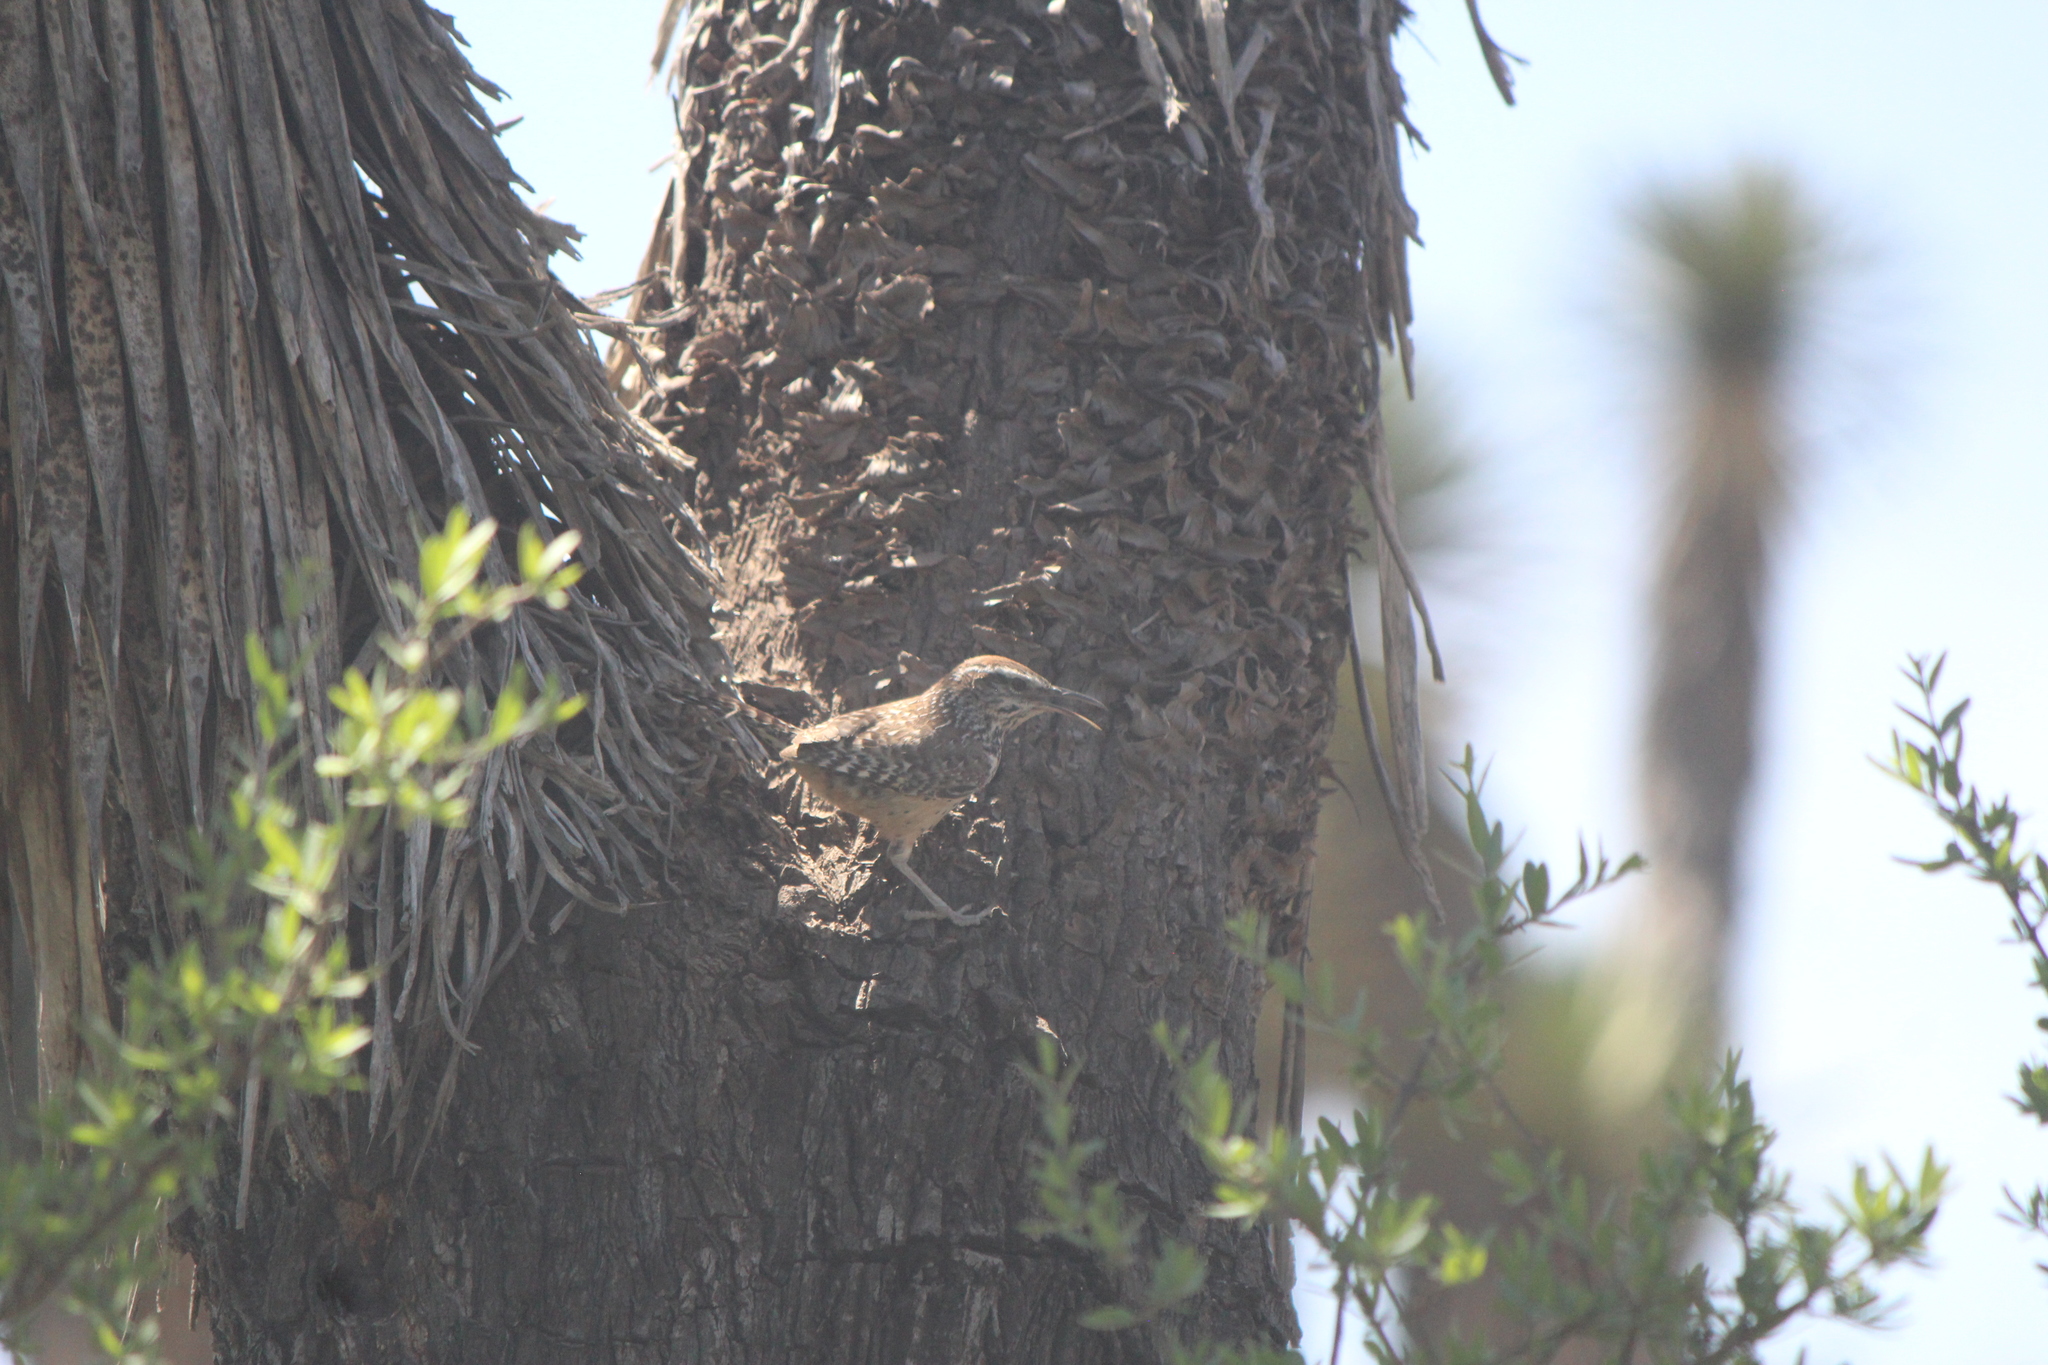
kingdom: Animalia
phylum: Chordata
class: Aves
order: Passeriformes
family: Troglodytidae
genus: Campylorhynchus
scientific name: Campylorhynchus brunneicapillus
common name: Cactus wren
